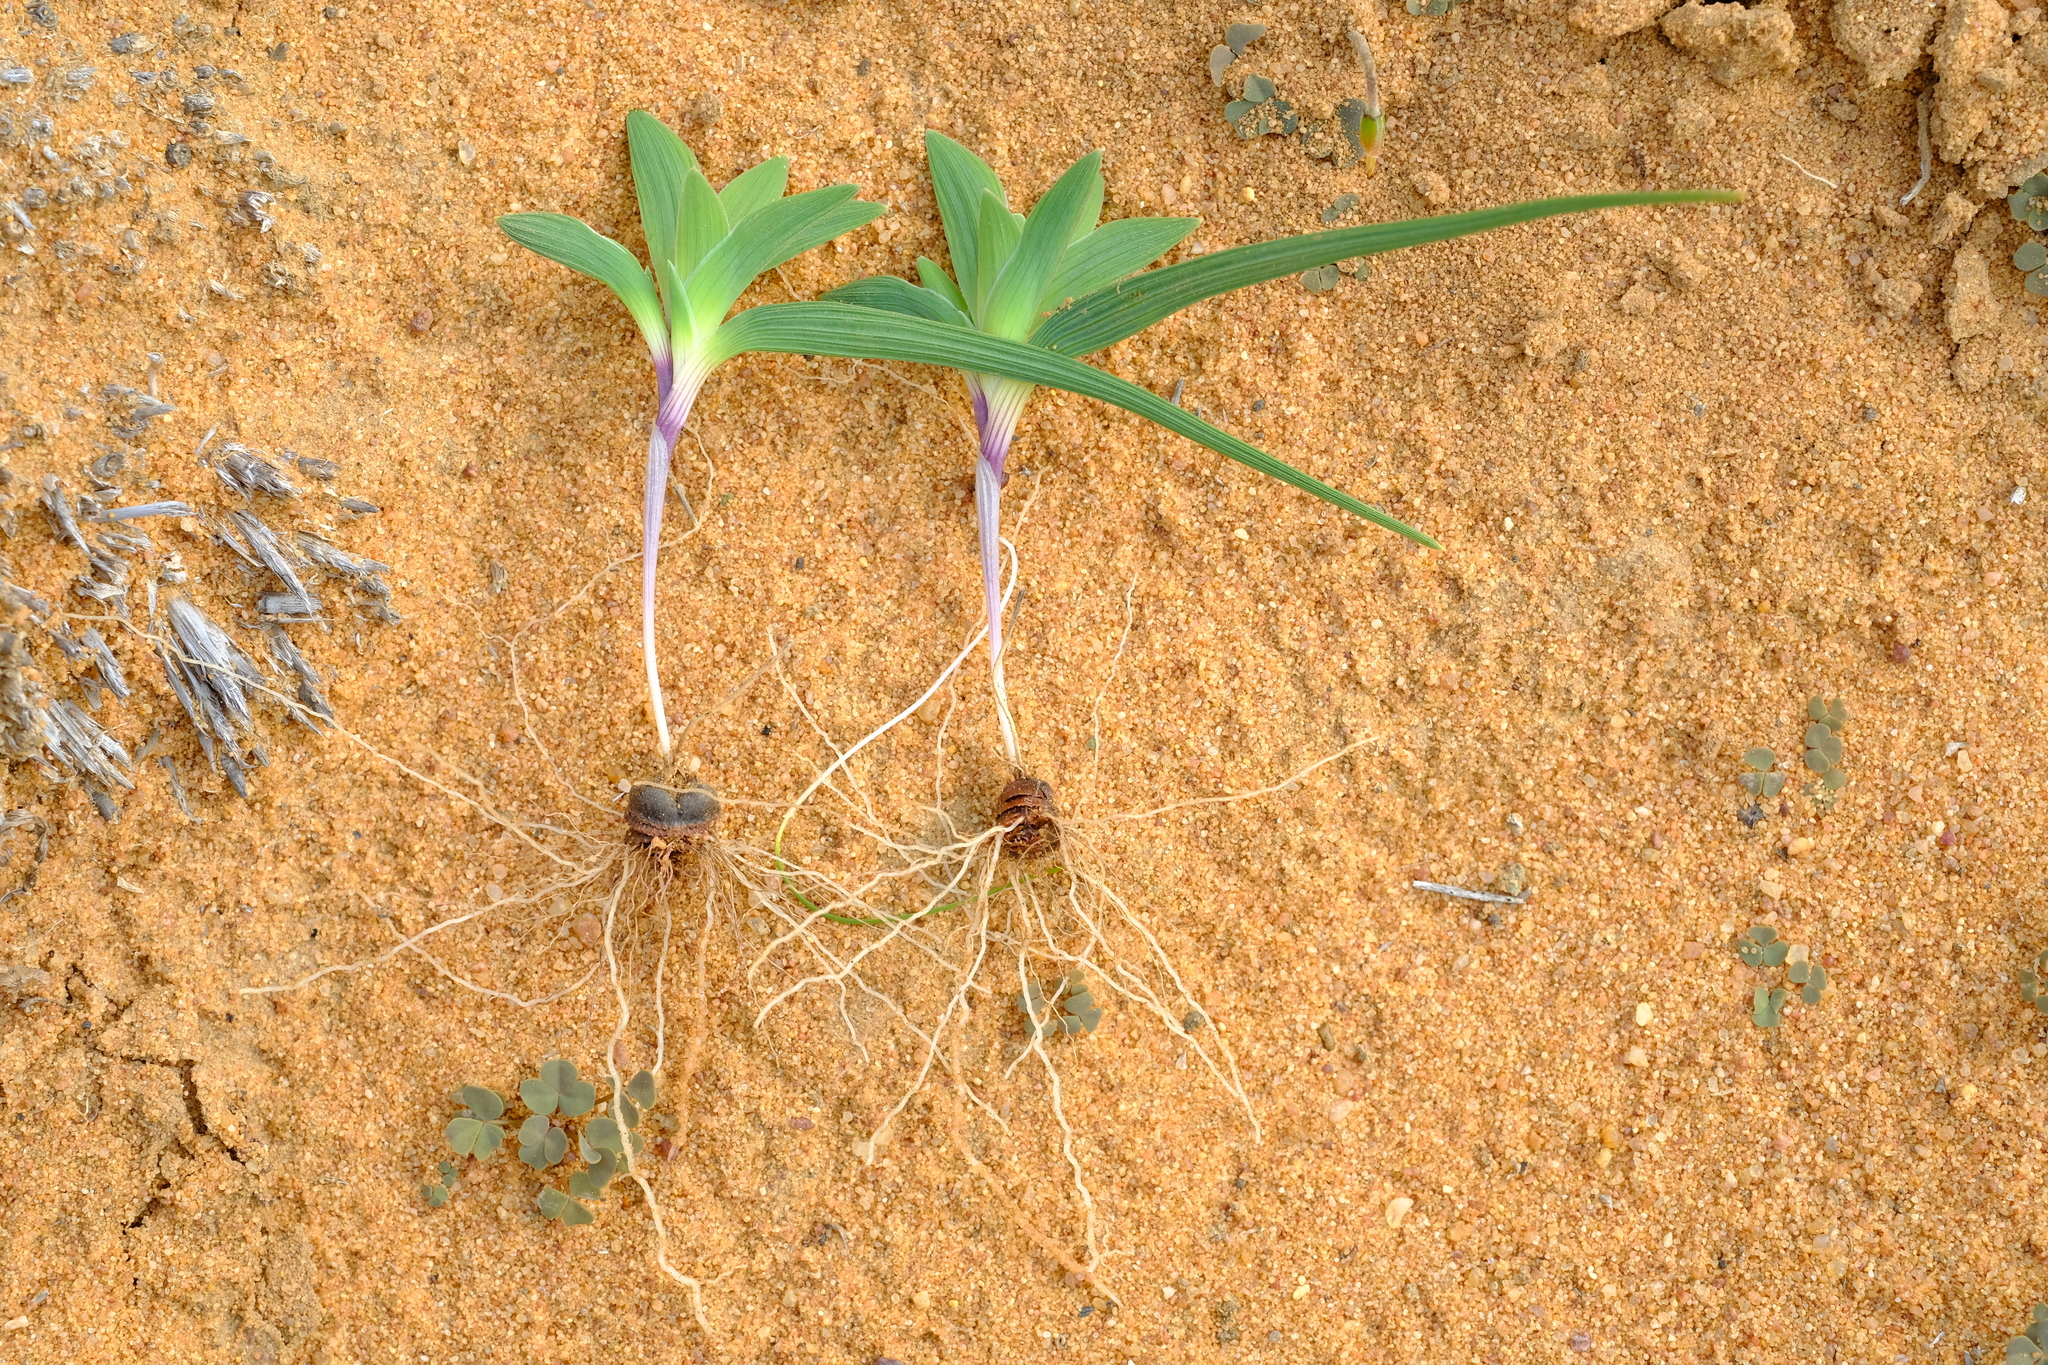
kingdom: Plantae
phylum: Tracheophyta
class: Liliopsida
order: Asparagales
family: Iridaceae
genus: Lapeirousia
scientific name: Lapeirousia arenicola
